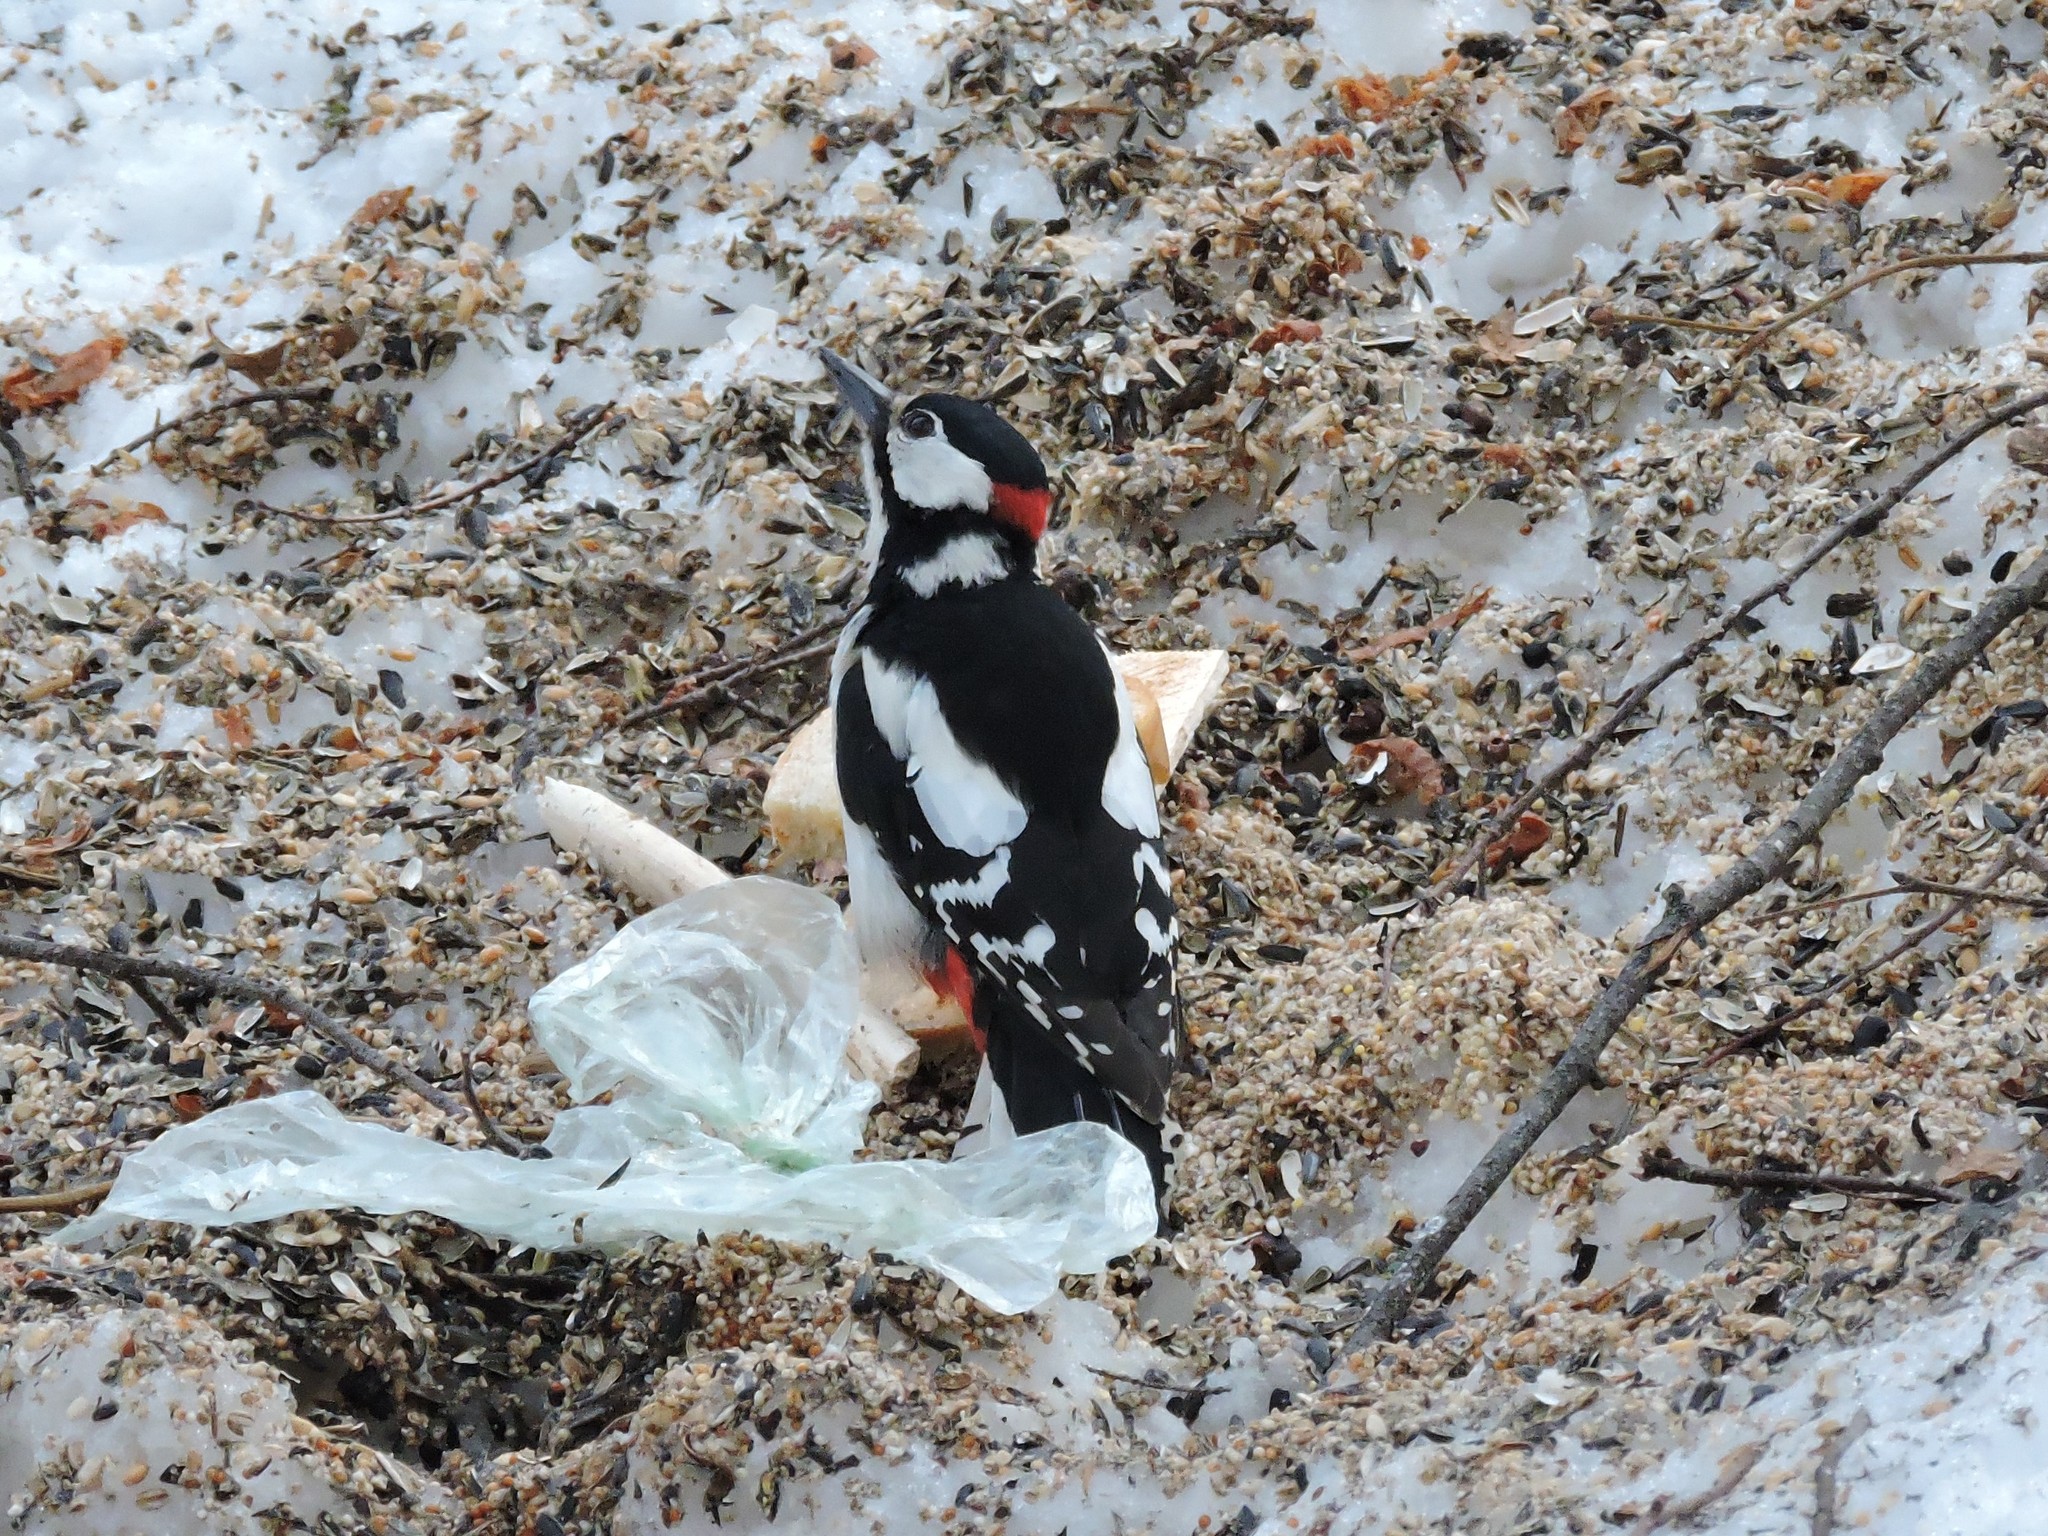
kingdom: Animalia
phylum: Chordata
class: Aves
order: Piciformes
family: Picidae
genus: Dendrocopos
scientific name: Dendrocopos major
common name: Great spotted woodpecker
